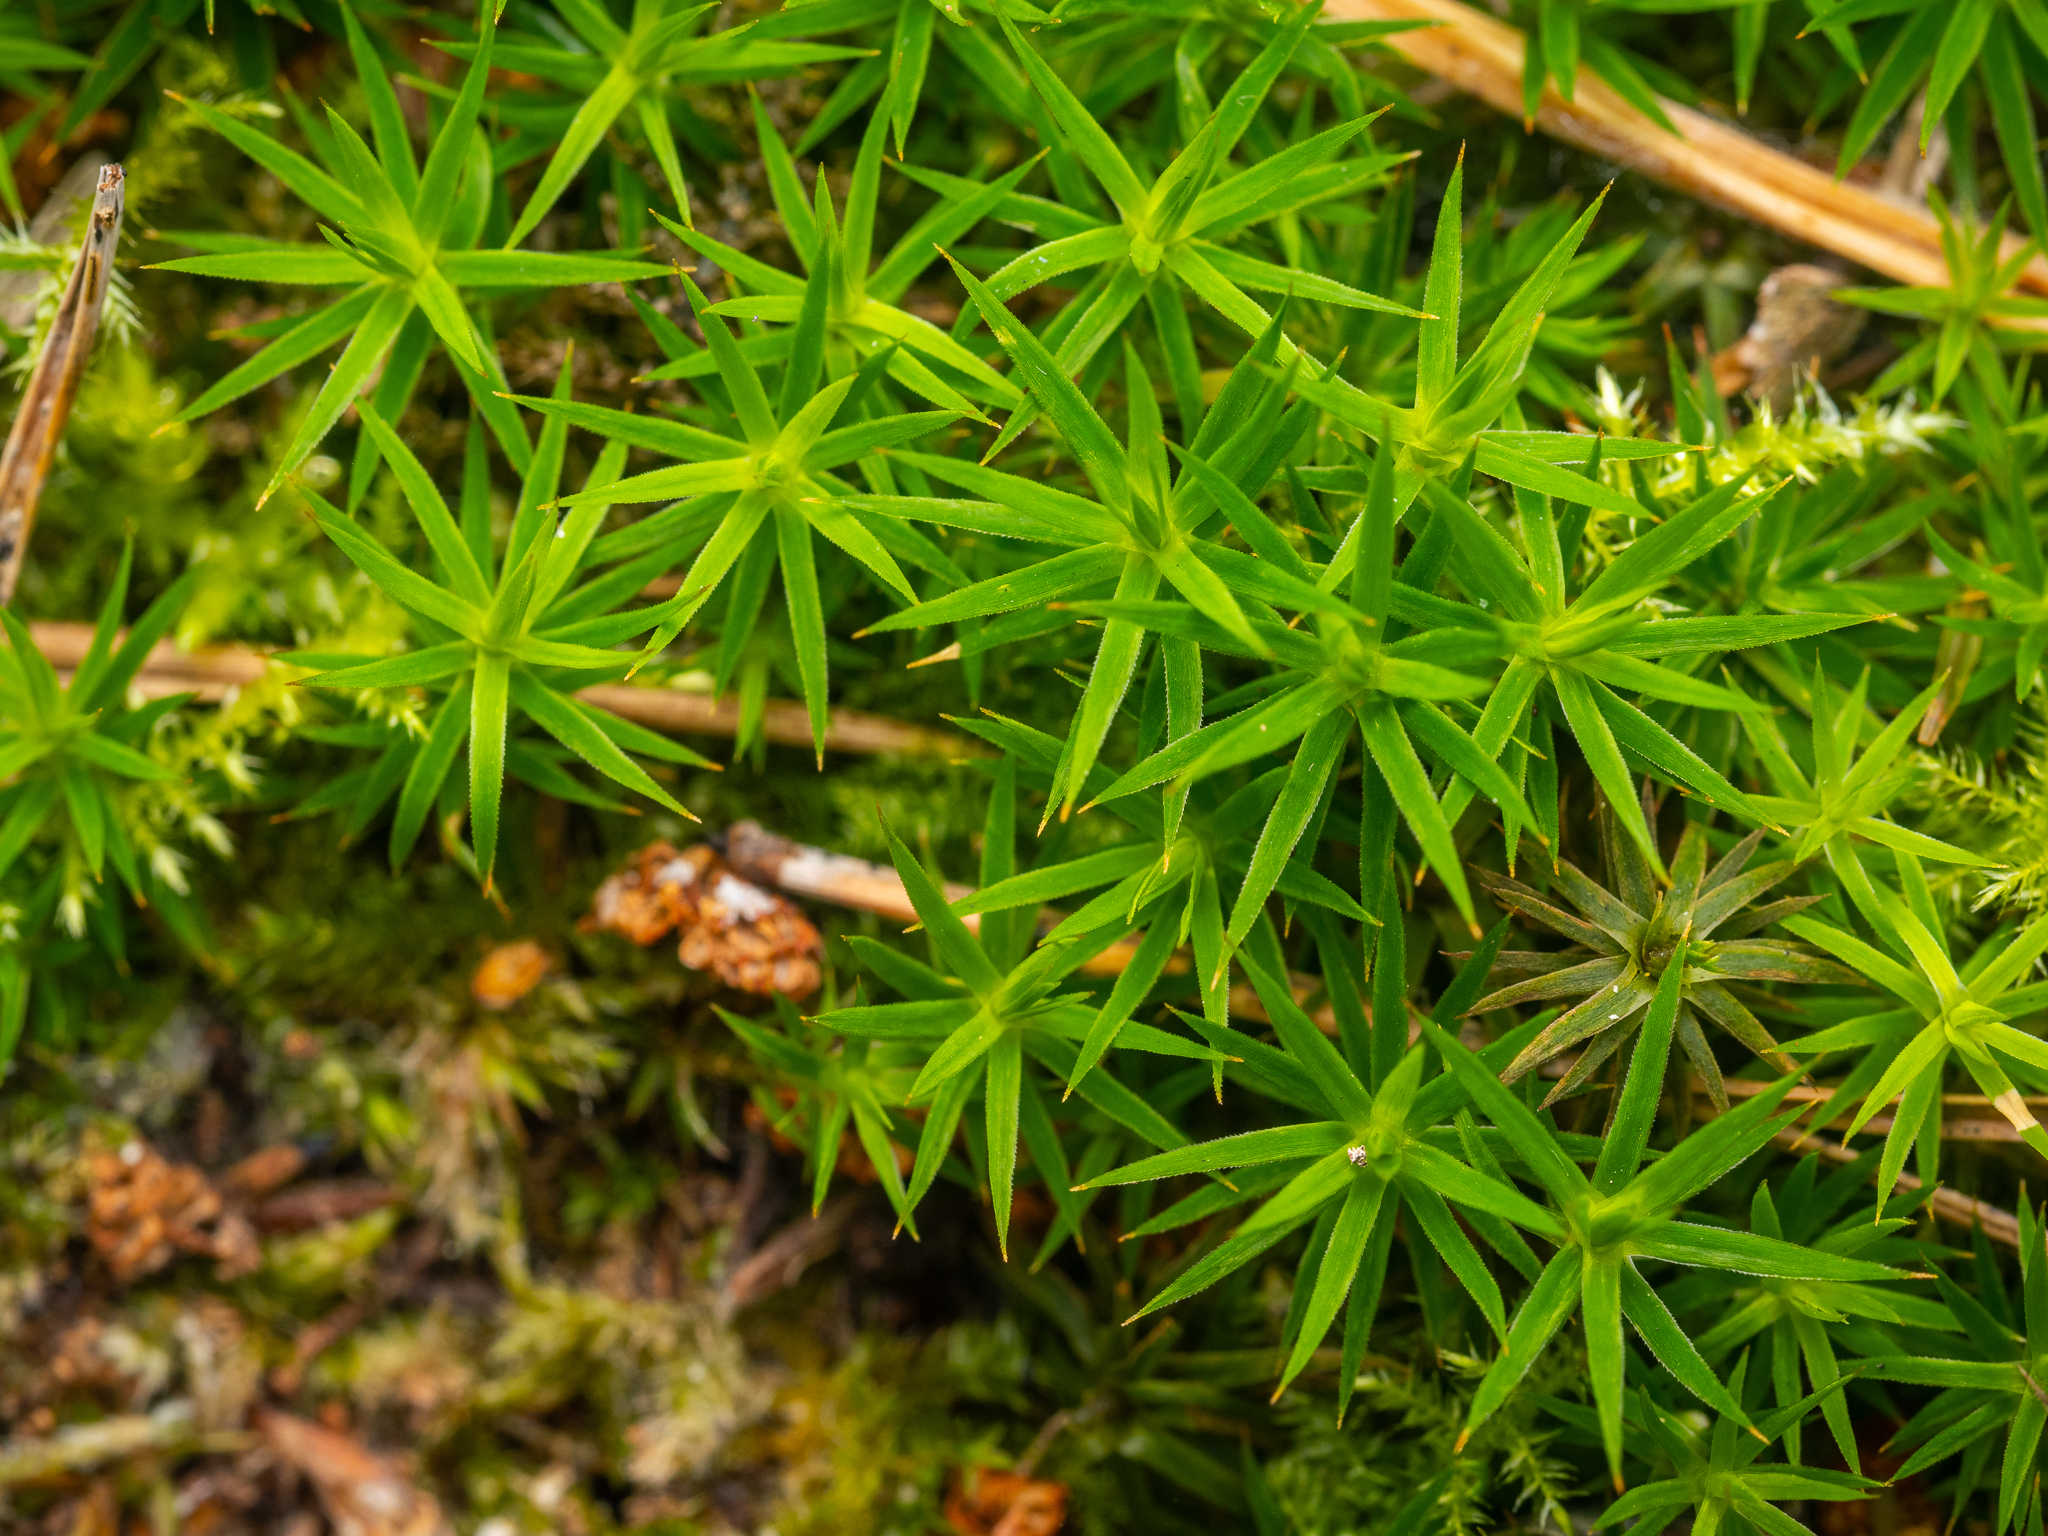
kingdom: Plantae
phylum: Bryophyta
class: Polytrichopsida
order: Polytrichales
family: Polytrichaceae
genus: Polytrichum
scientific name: Polytrichum formosum
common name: Bank haircap moss
